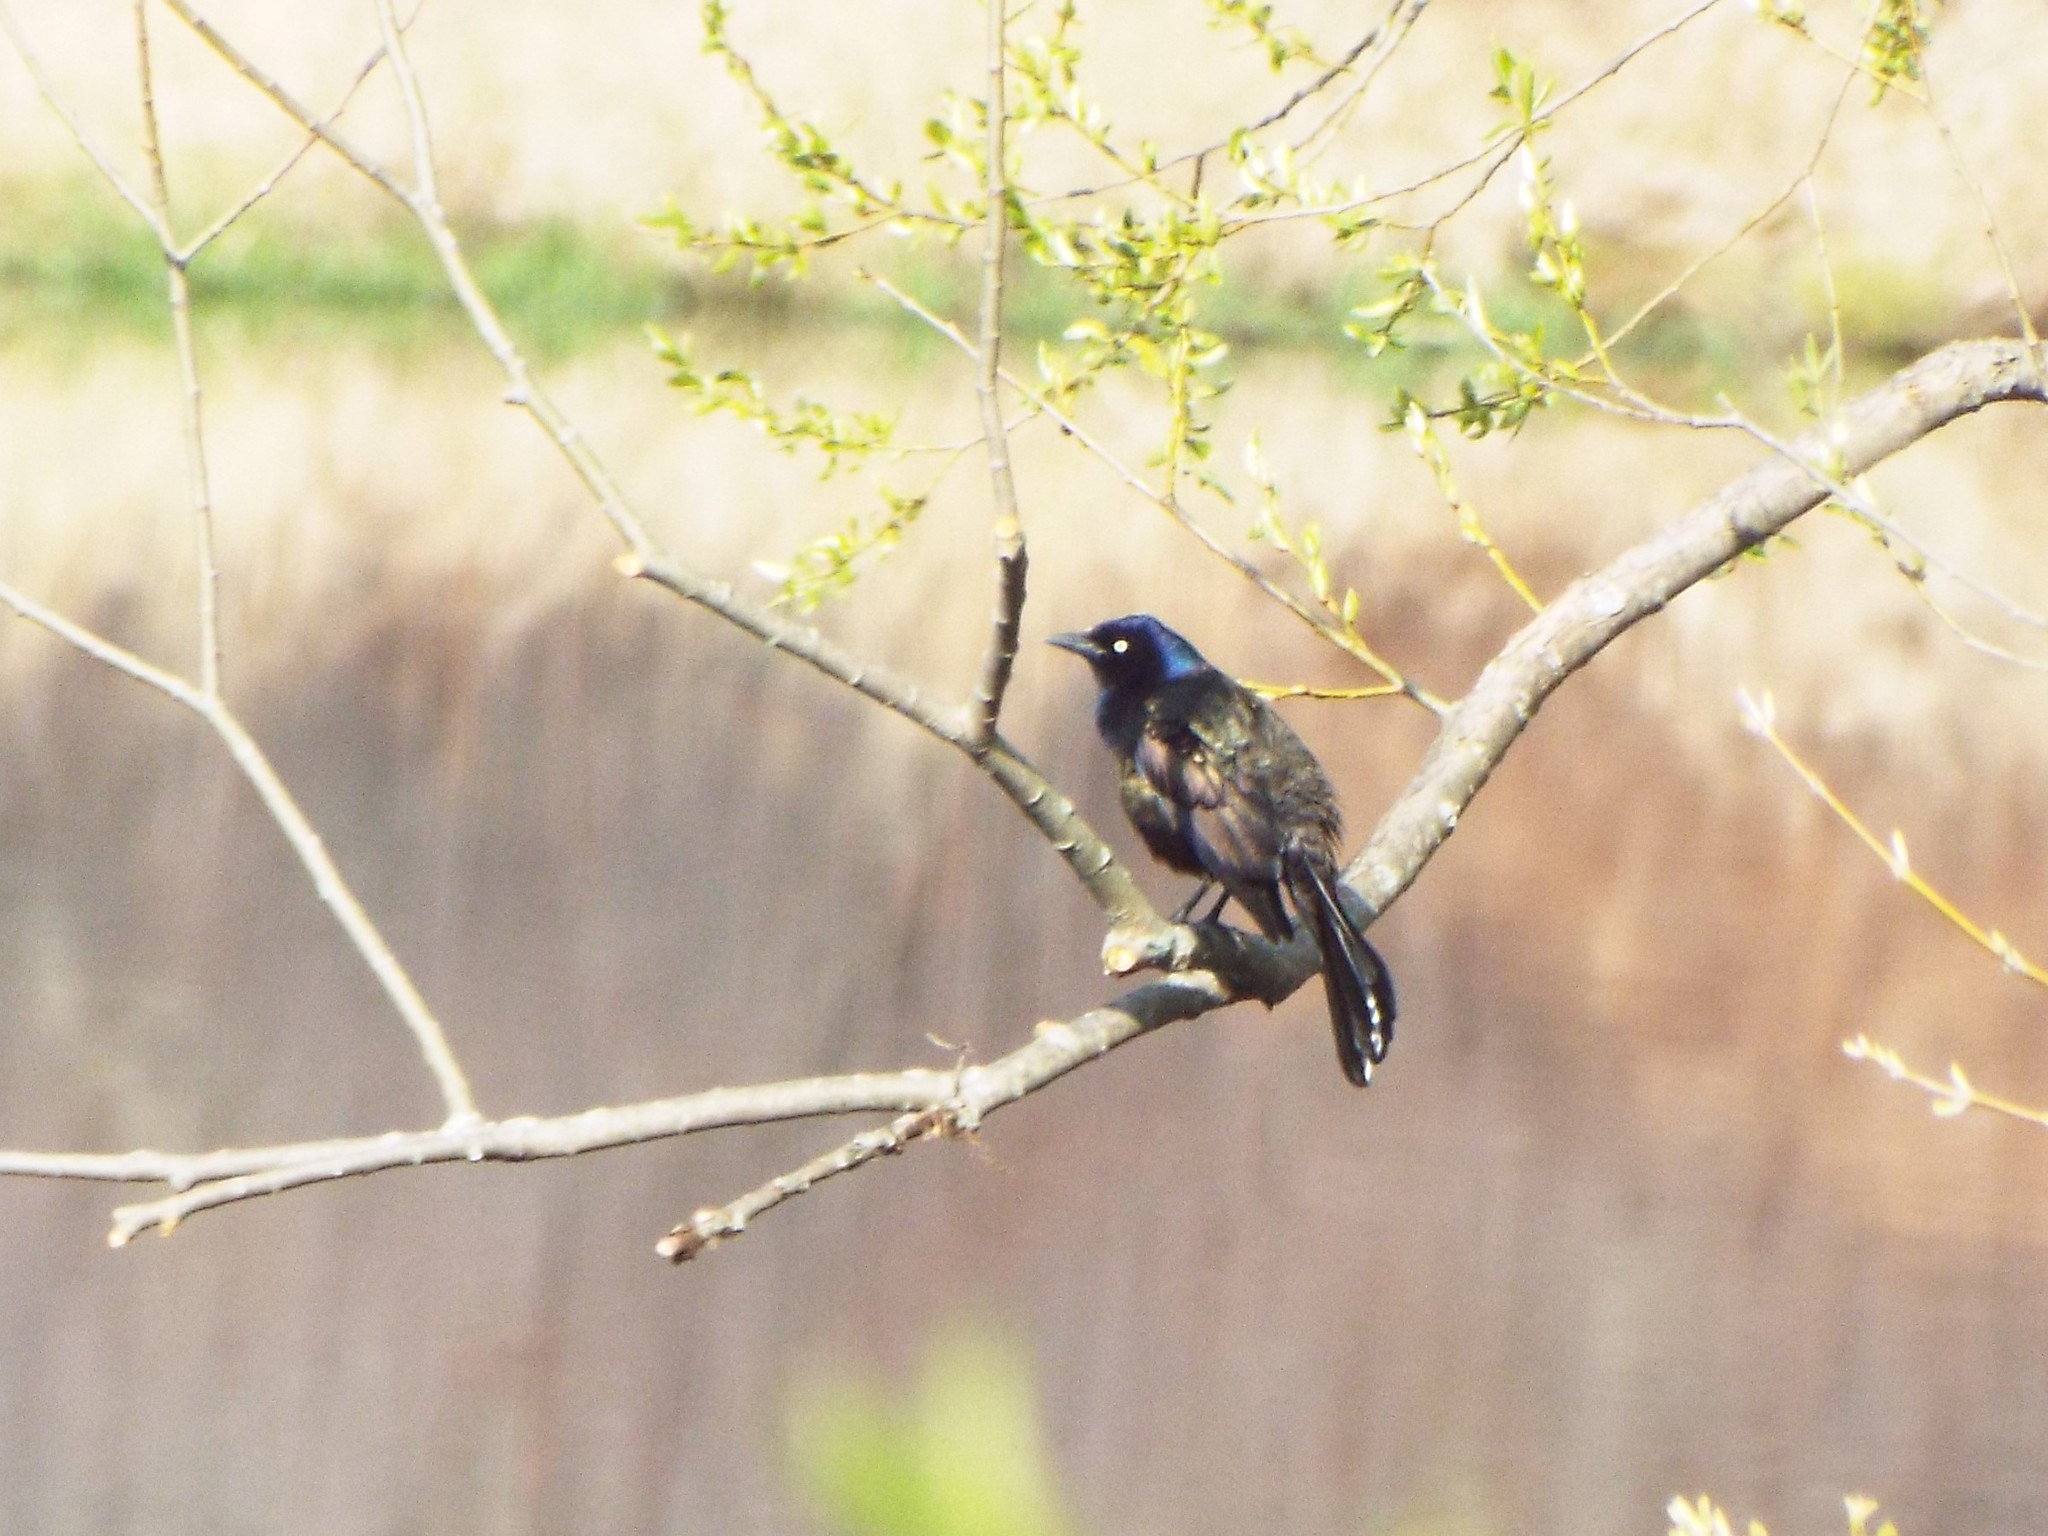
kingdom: Animalia
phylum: Chordata
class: Aves
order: Passeriformes
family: Icteridae
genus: Quiscalus
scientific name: Quiscalus quiscula
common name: Common grackle
